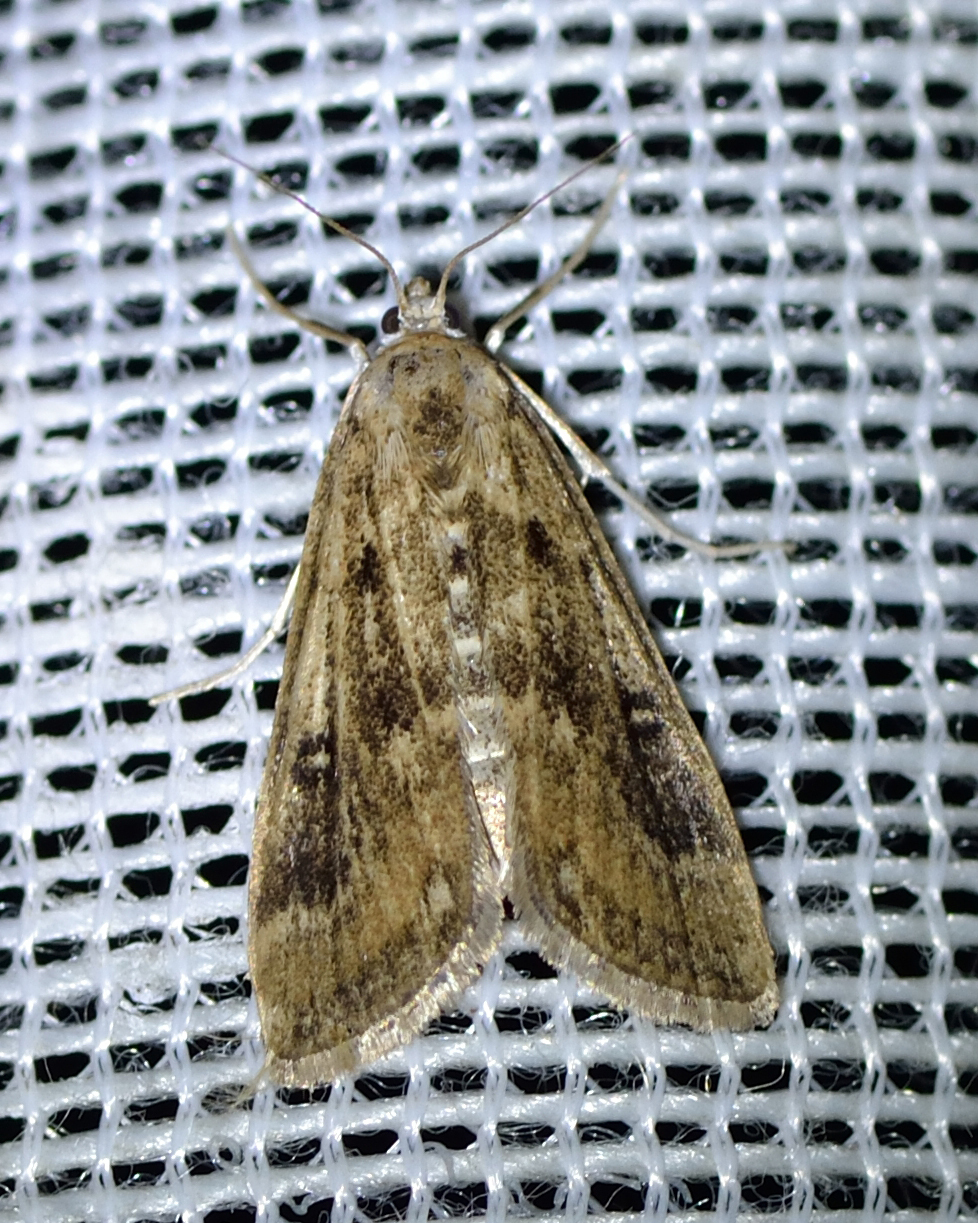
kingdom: Animalia
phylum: Arthropoda
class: Insecta
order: Lepidoptera
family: Crambidae
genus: Parapoynx
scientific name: Parapoynx stratiotata
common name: Ringed china-mark
